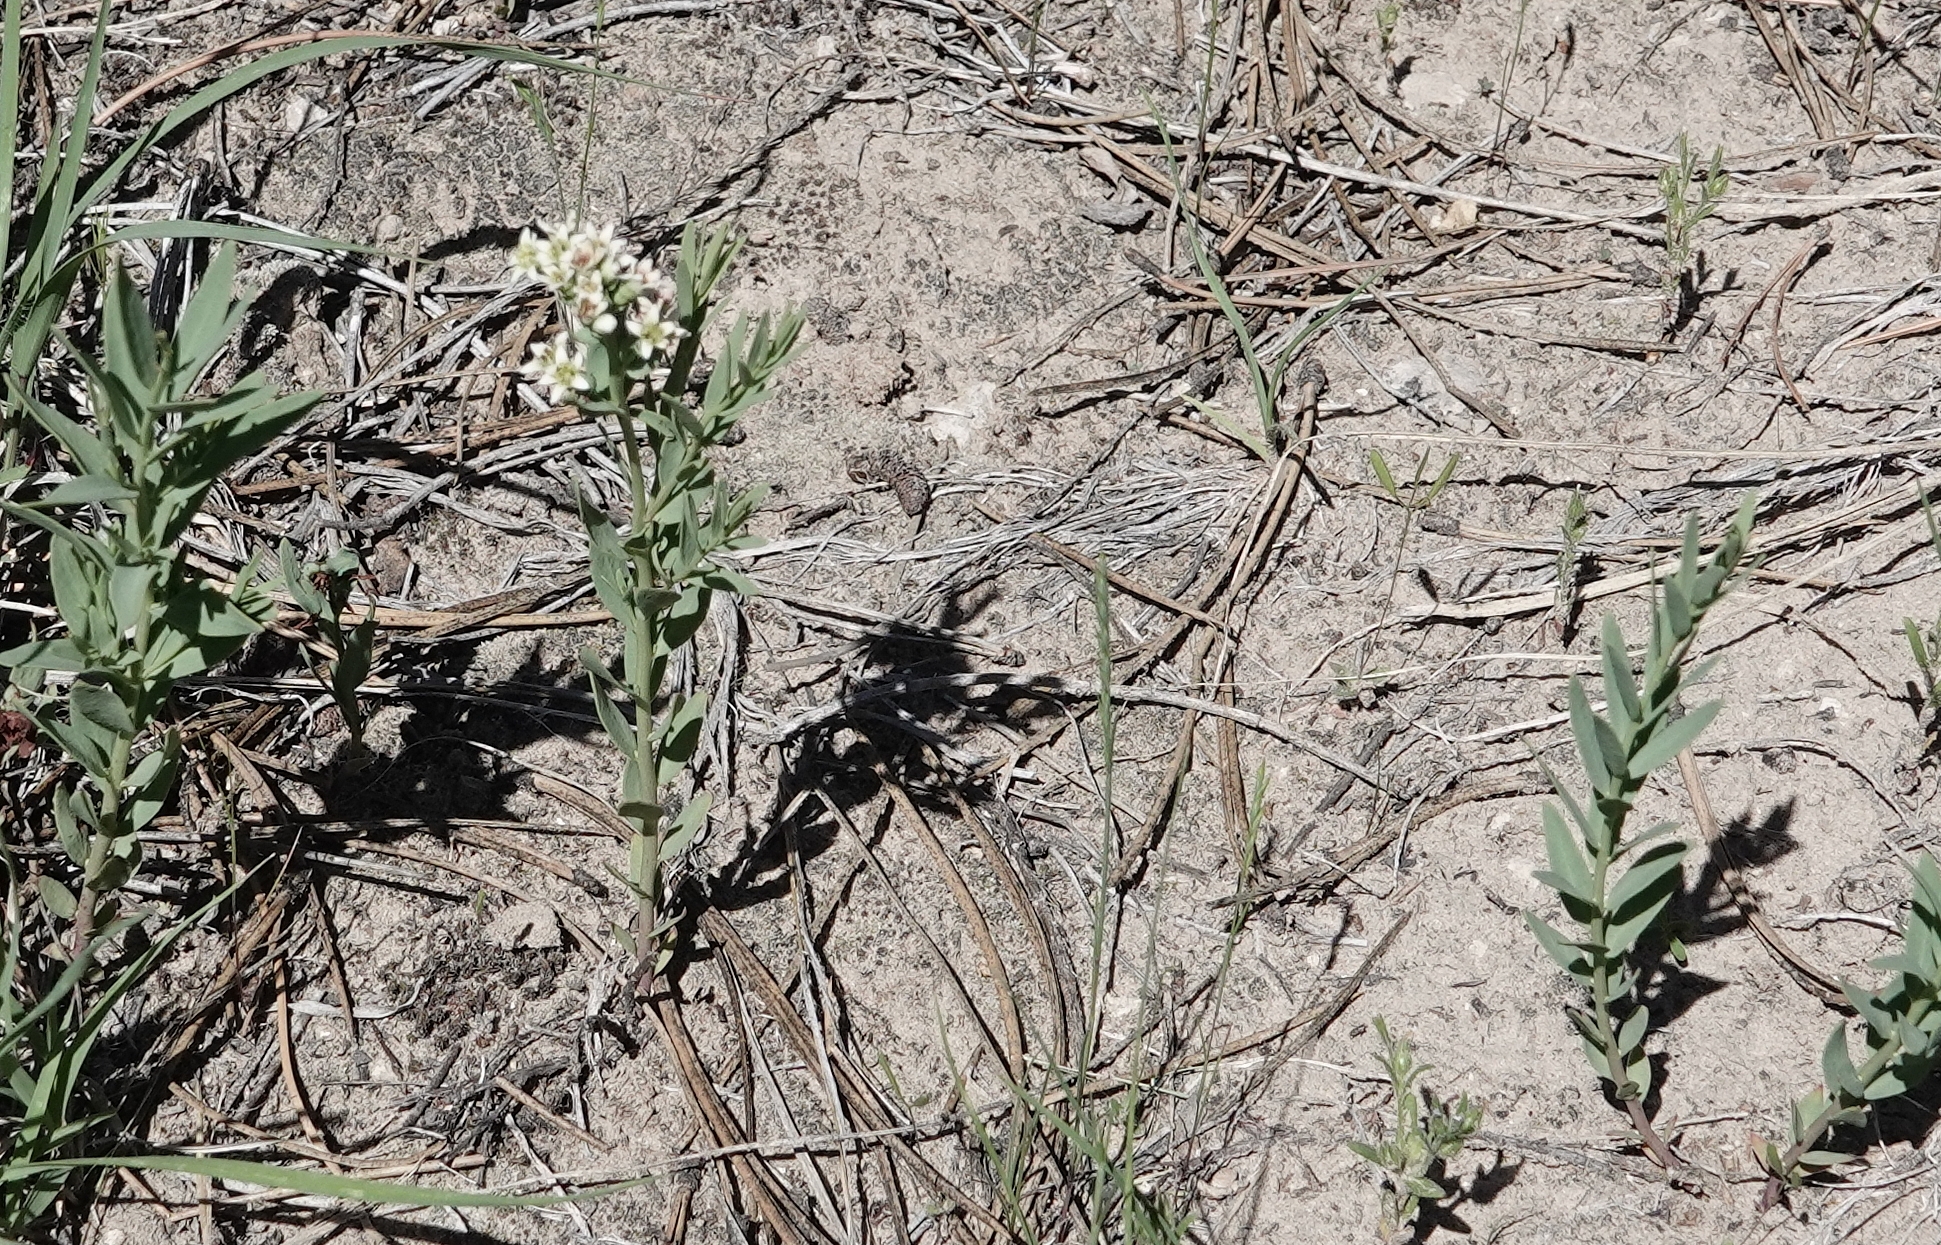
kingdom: Plantae
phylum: Tracheophyta
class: Magnoliopsida
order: Santalales
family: Comandraceae
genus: Comandra
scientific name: Comandra umbellata
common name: Bastard toadflax
